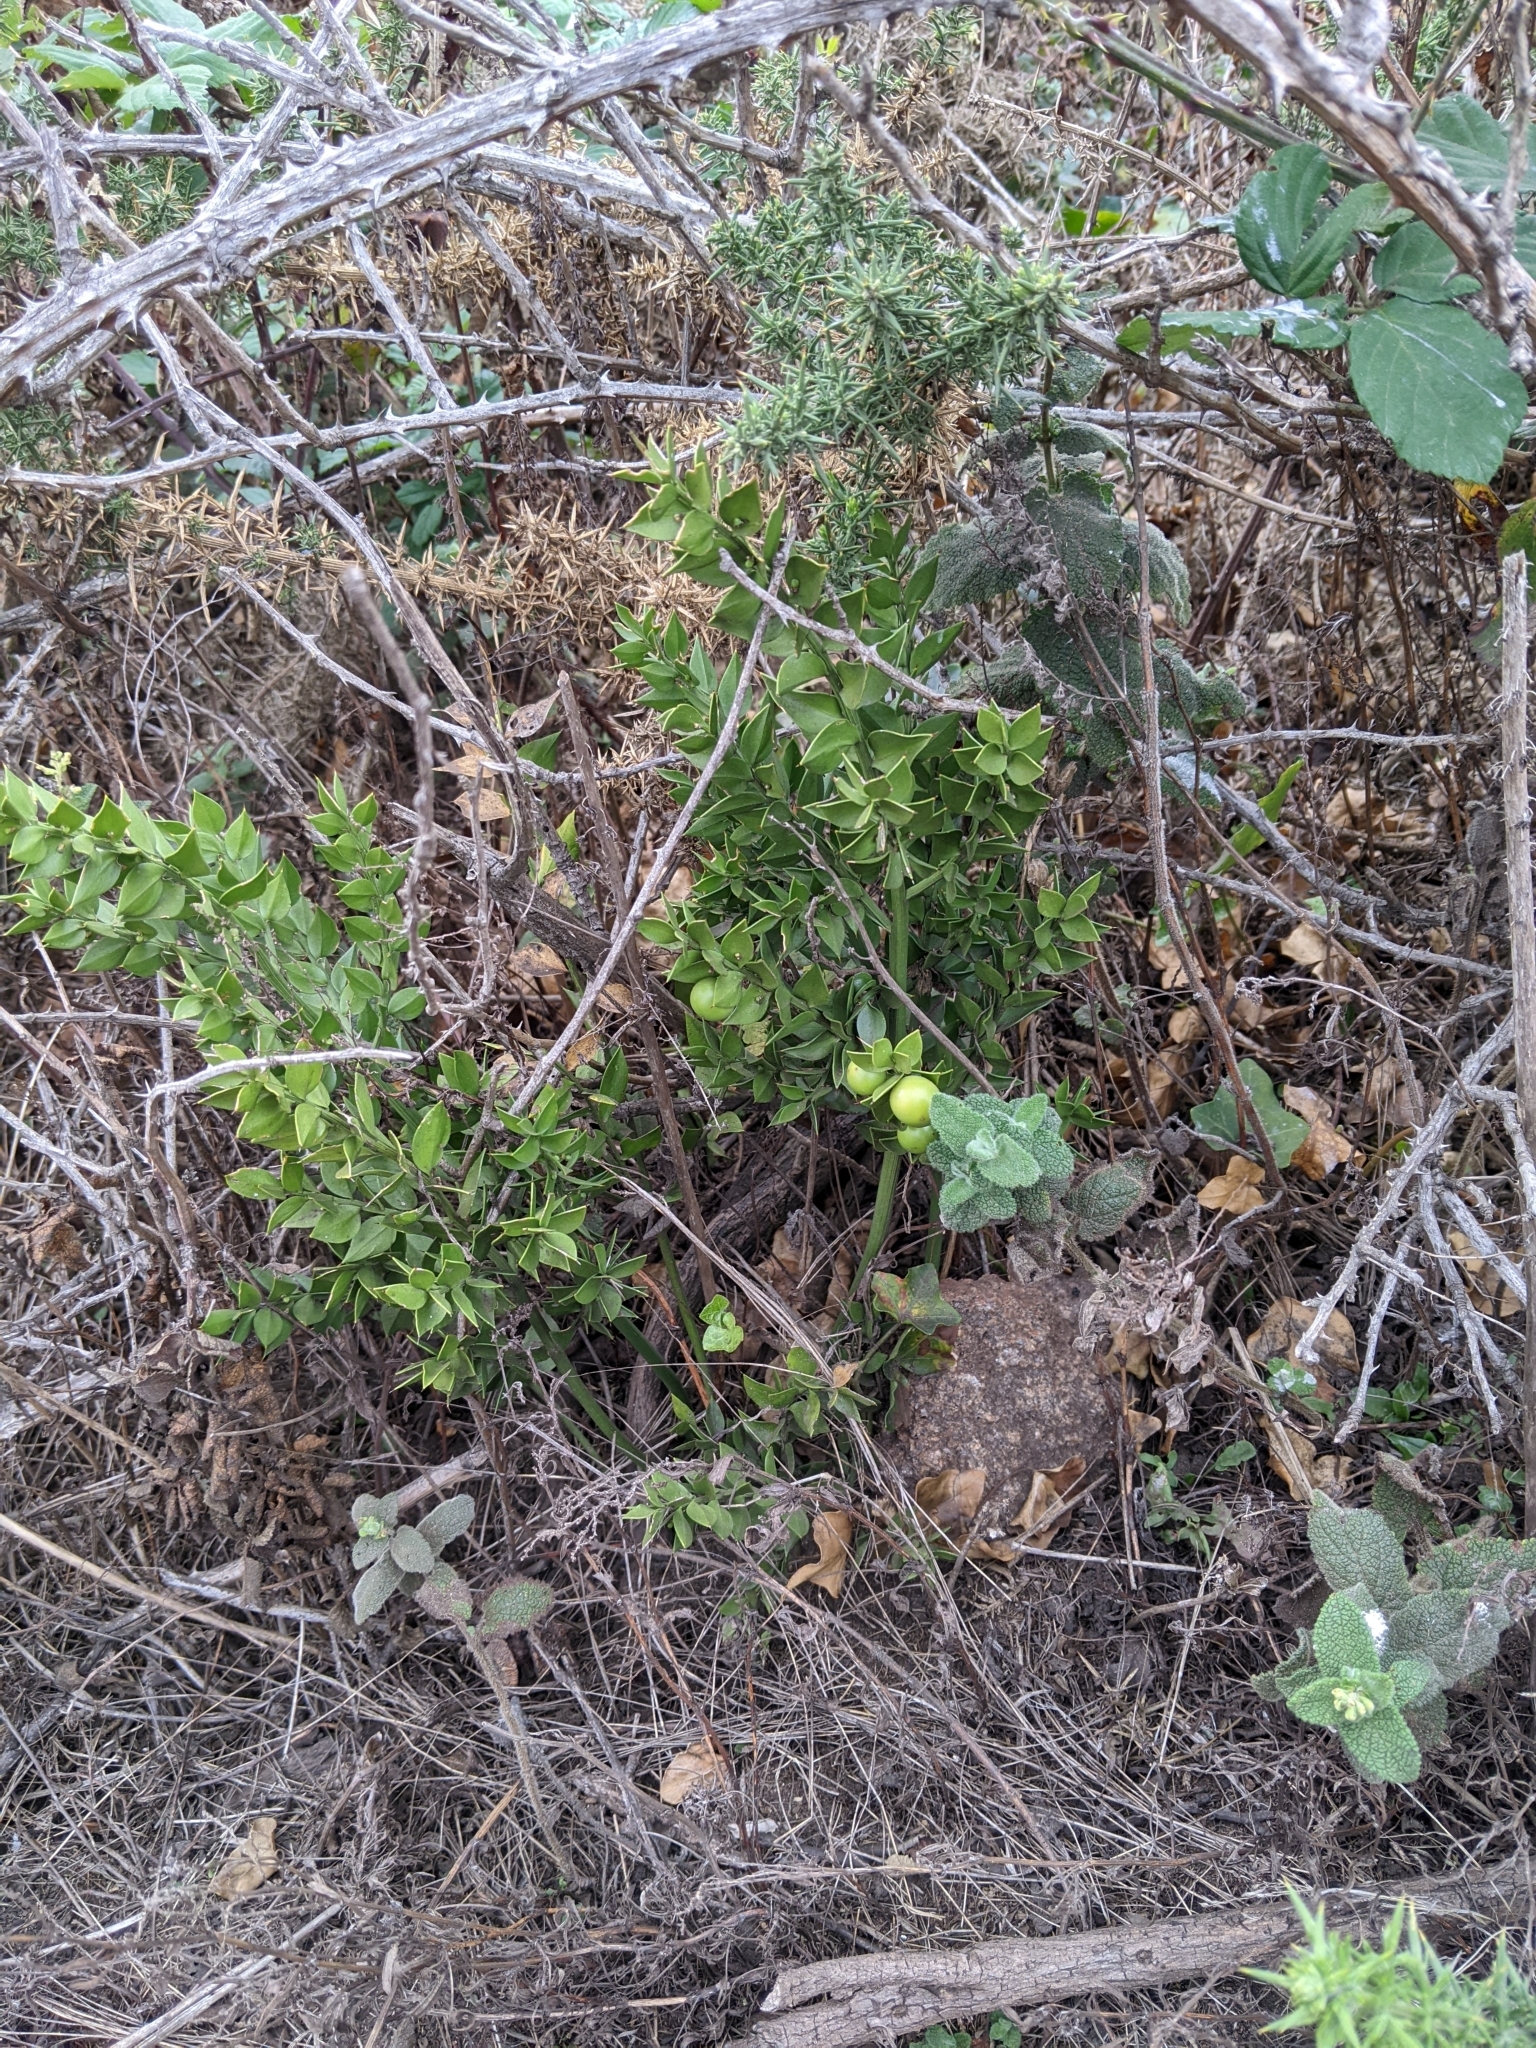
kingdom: Plantae
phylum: Tracheophyta
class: Liliopsida
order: Asparagales
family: Asparagaceae
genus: Ruscus
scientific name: Ruscus aculeatus
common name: Butcher's-broom
